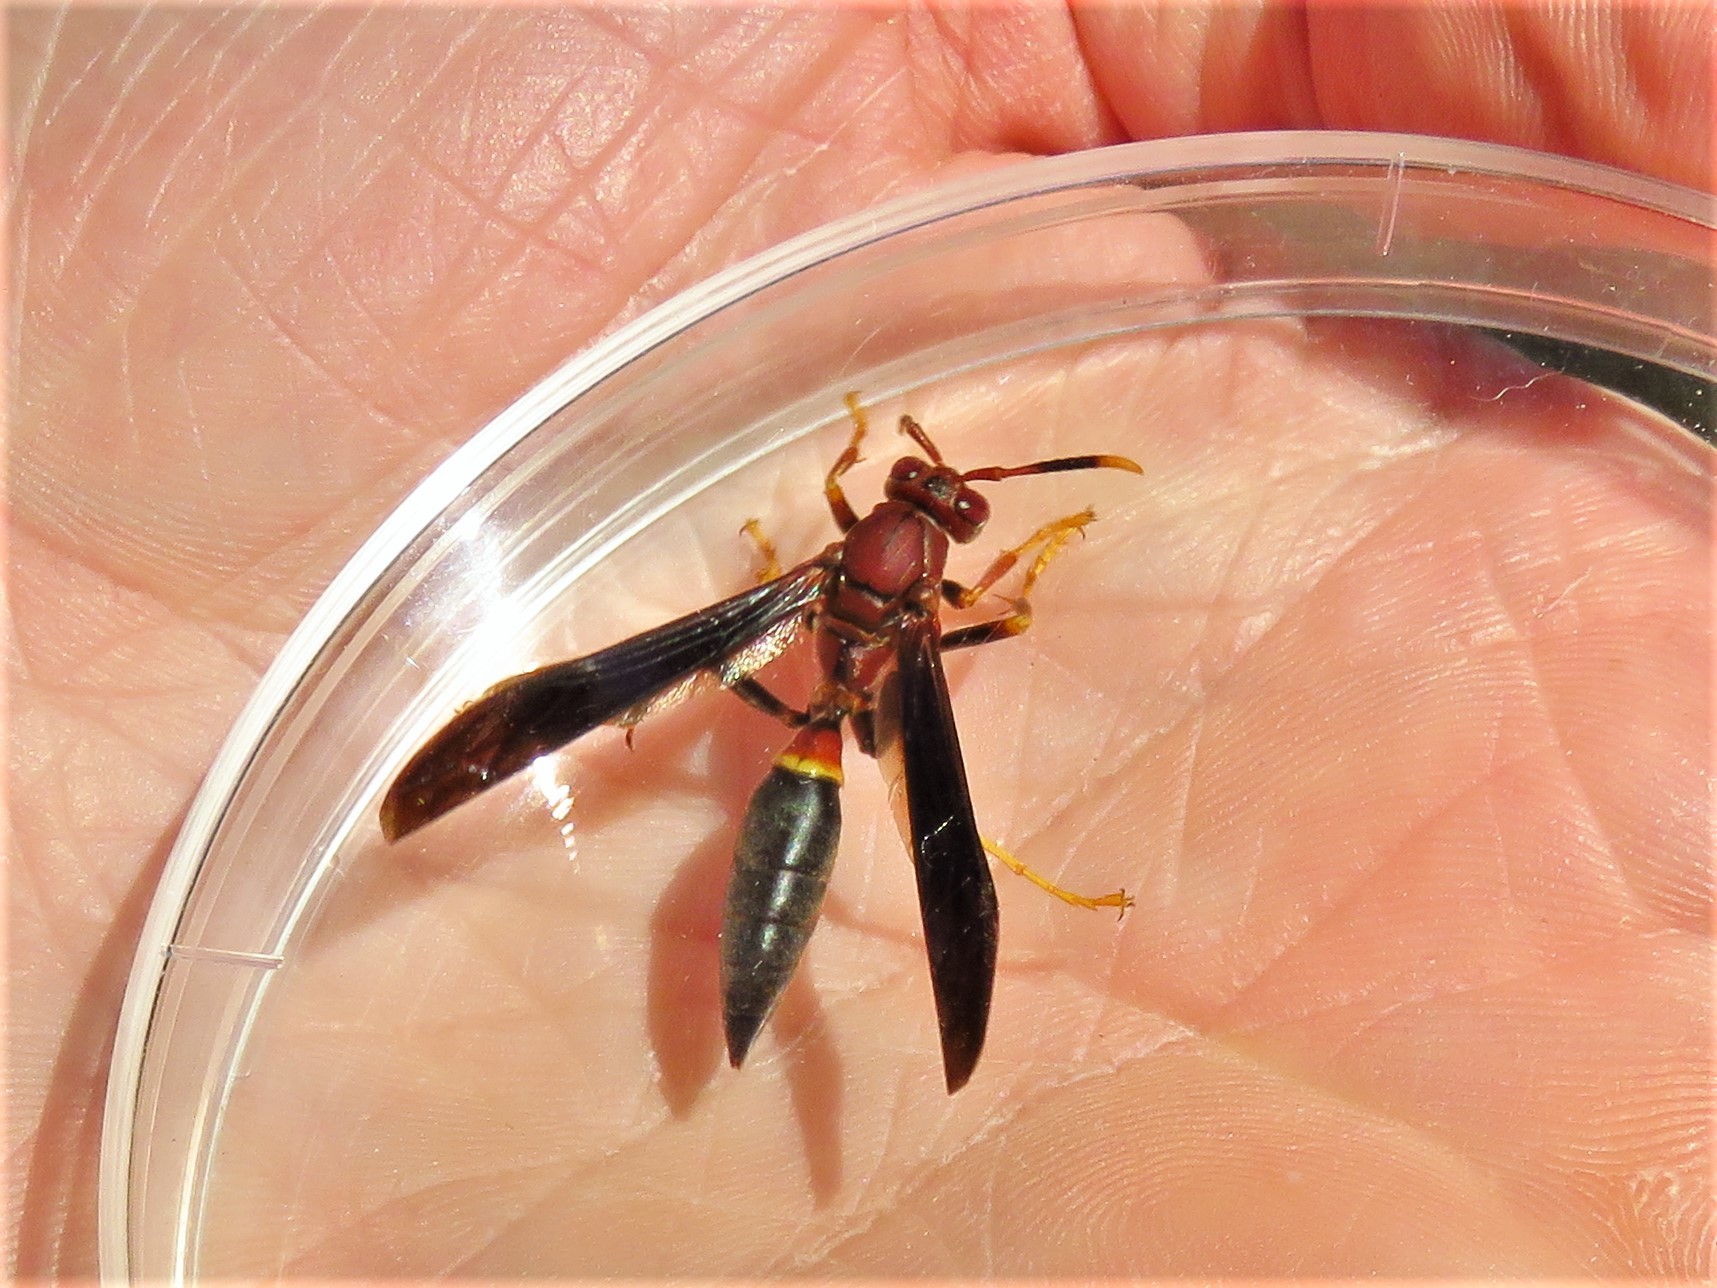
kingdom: Animalia
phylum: Arthropoda
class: Insecta
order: Hymenoptera
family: Eumenidae
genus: Polistes
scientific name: Polistes annularis
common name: Ringed paper wasp
